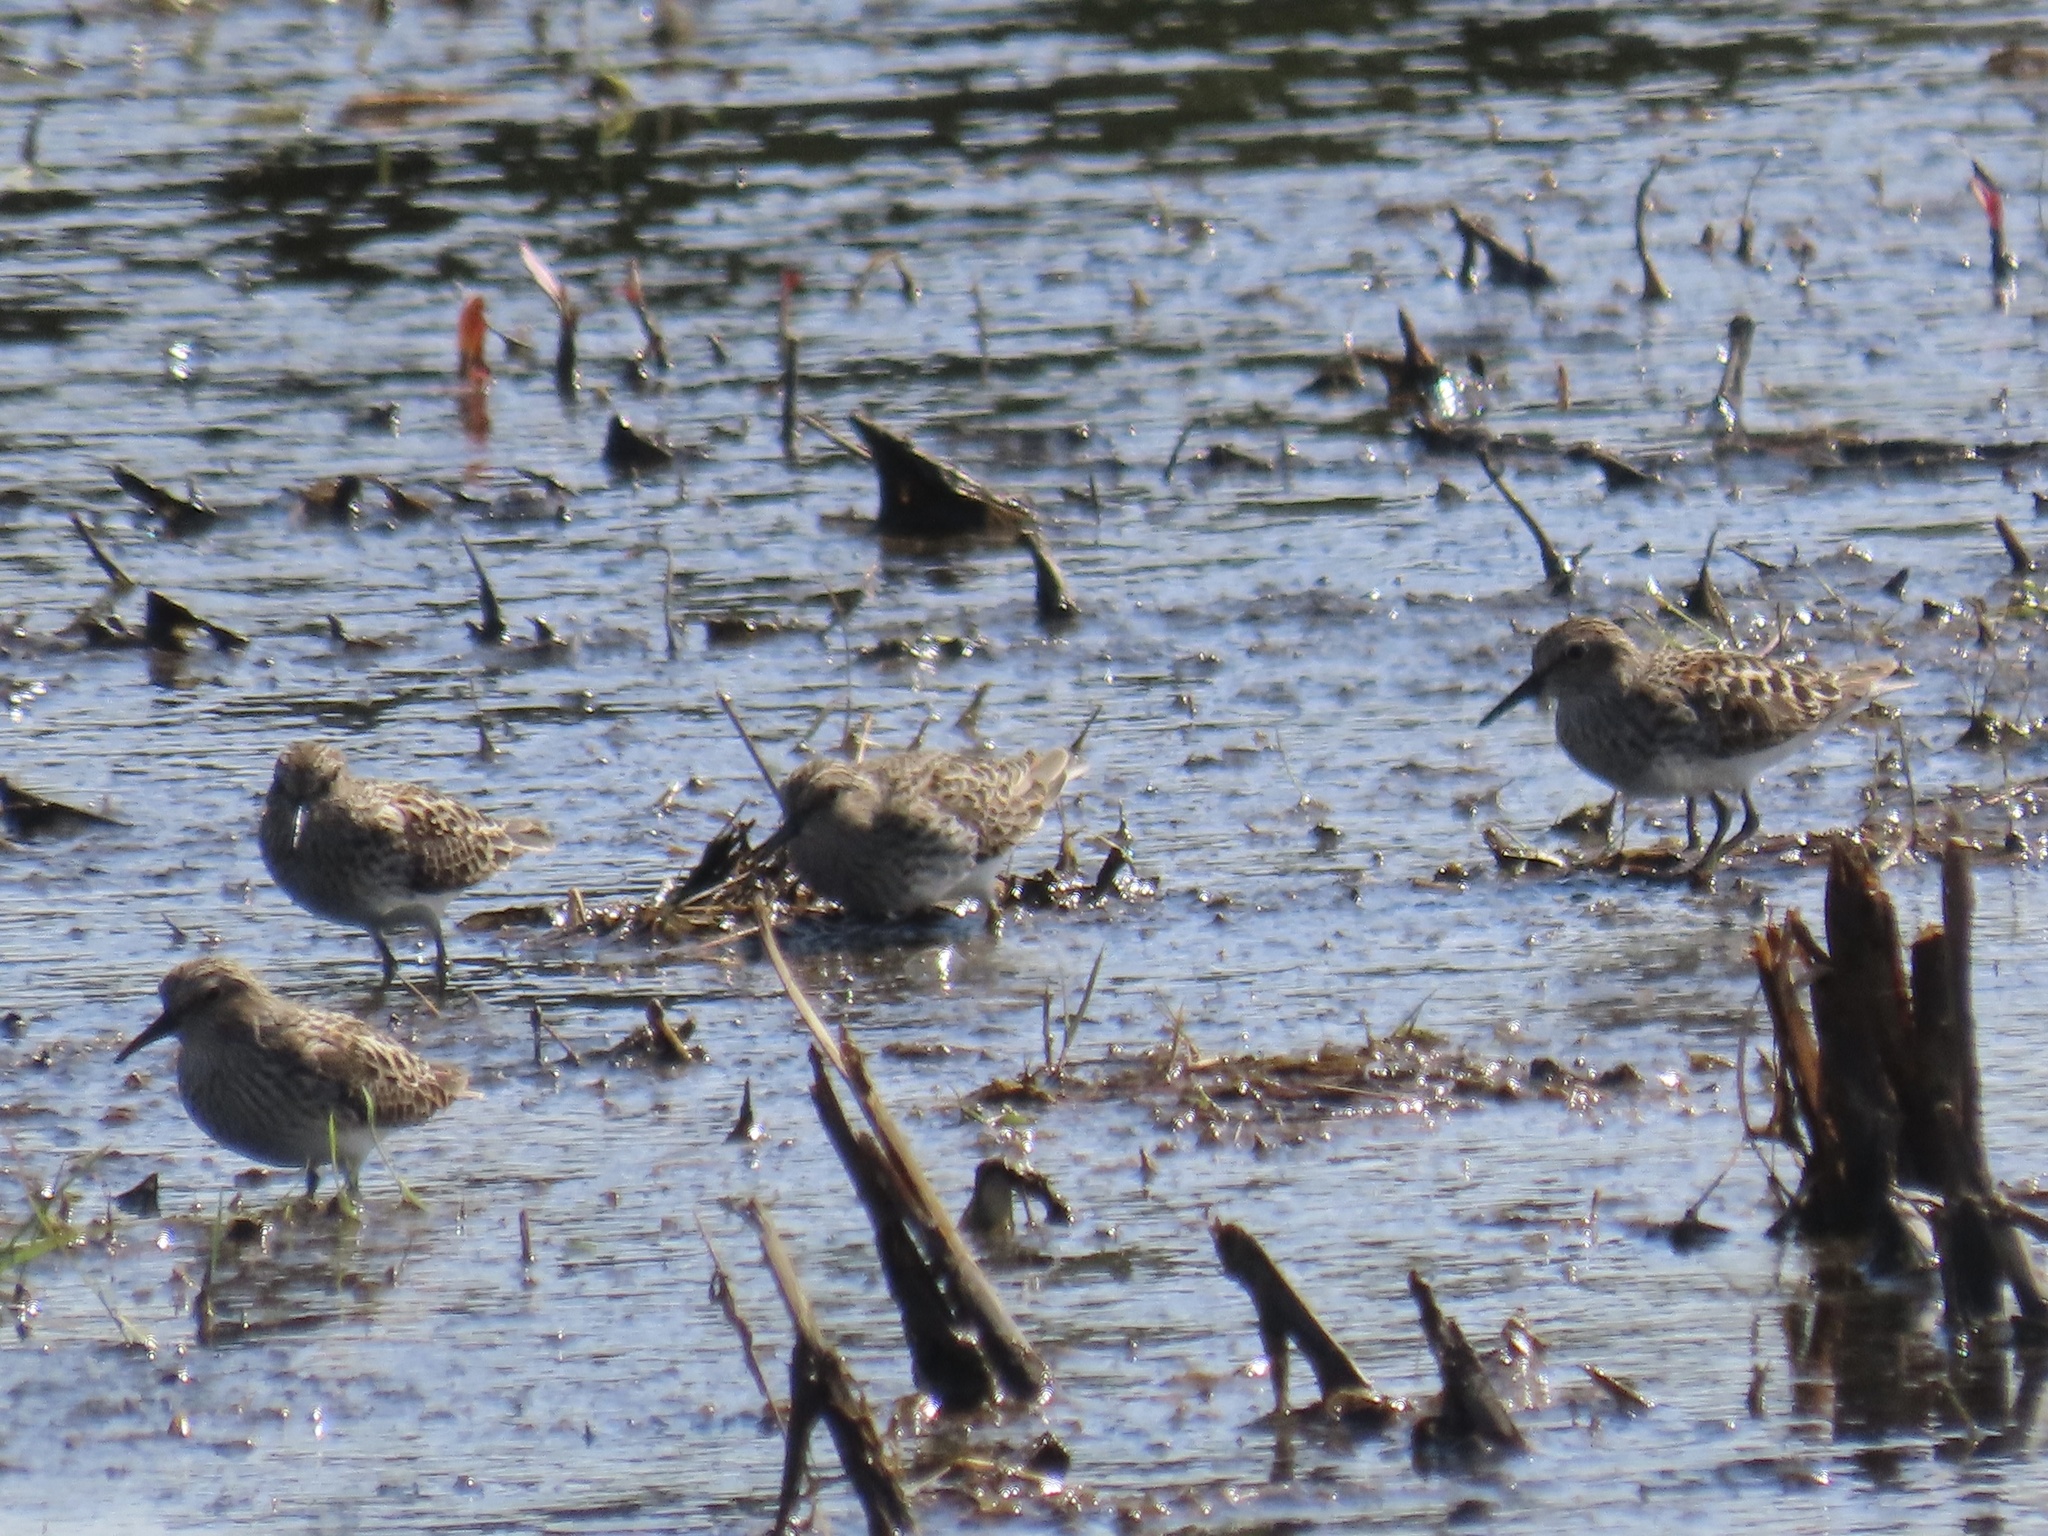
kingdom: Animalia
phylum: Chordata
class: Aves
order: Charadriiformes
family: Scolopacidae
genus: Calidris
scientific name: Calidris minutilla
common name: Least sandpiper
